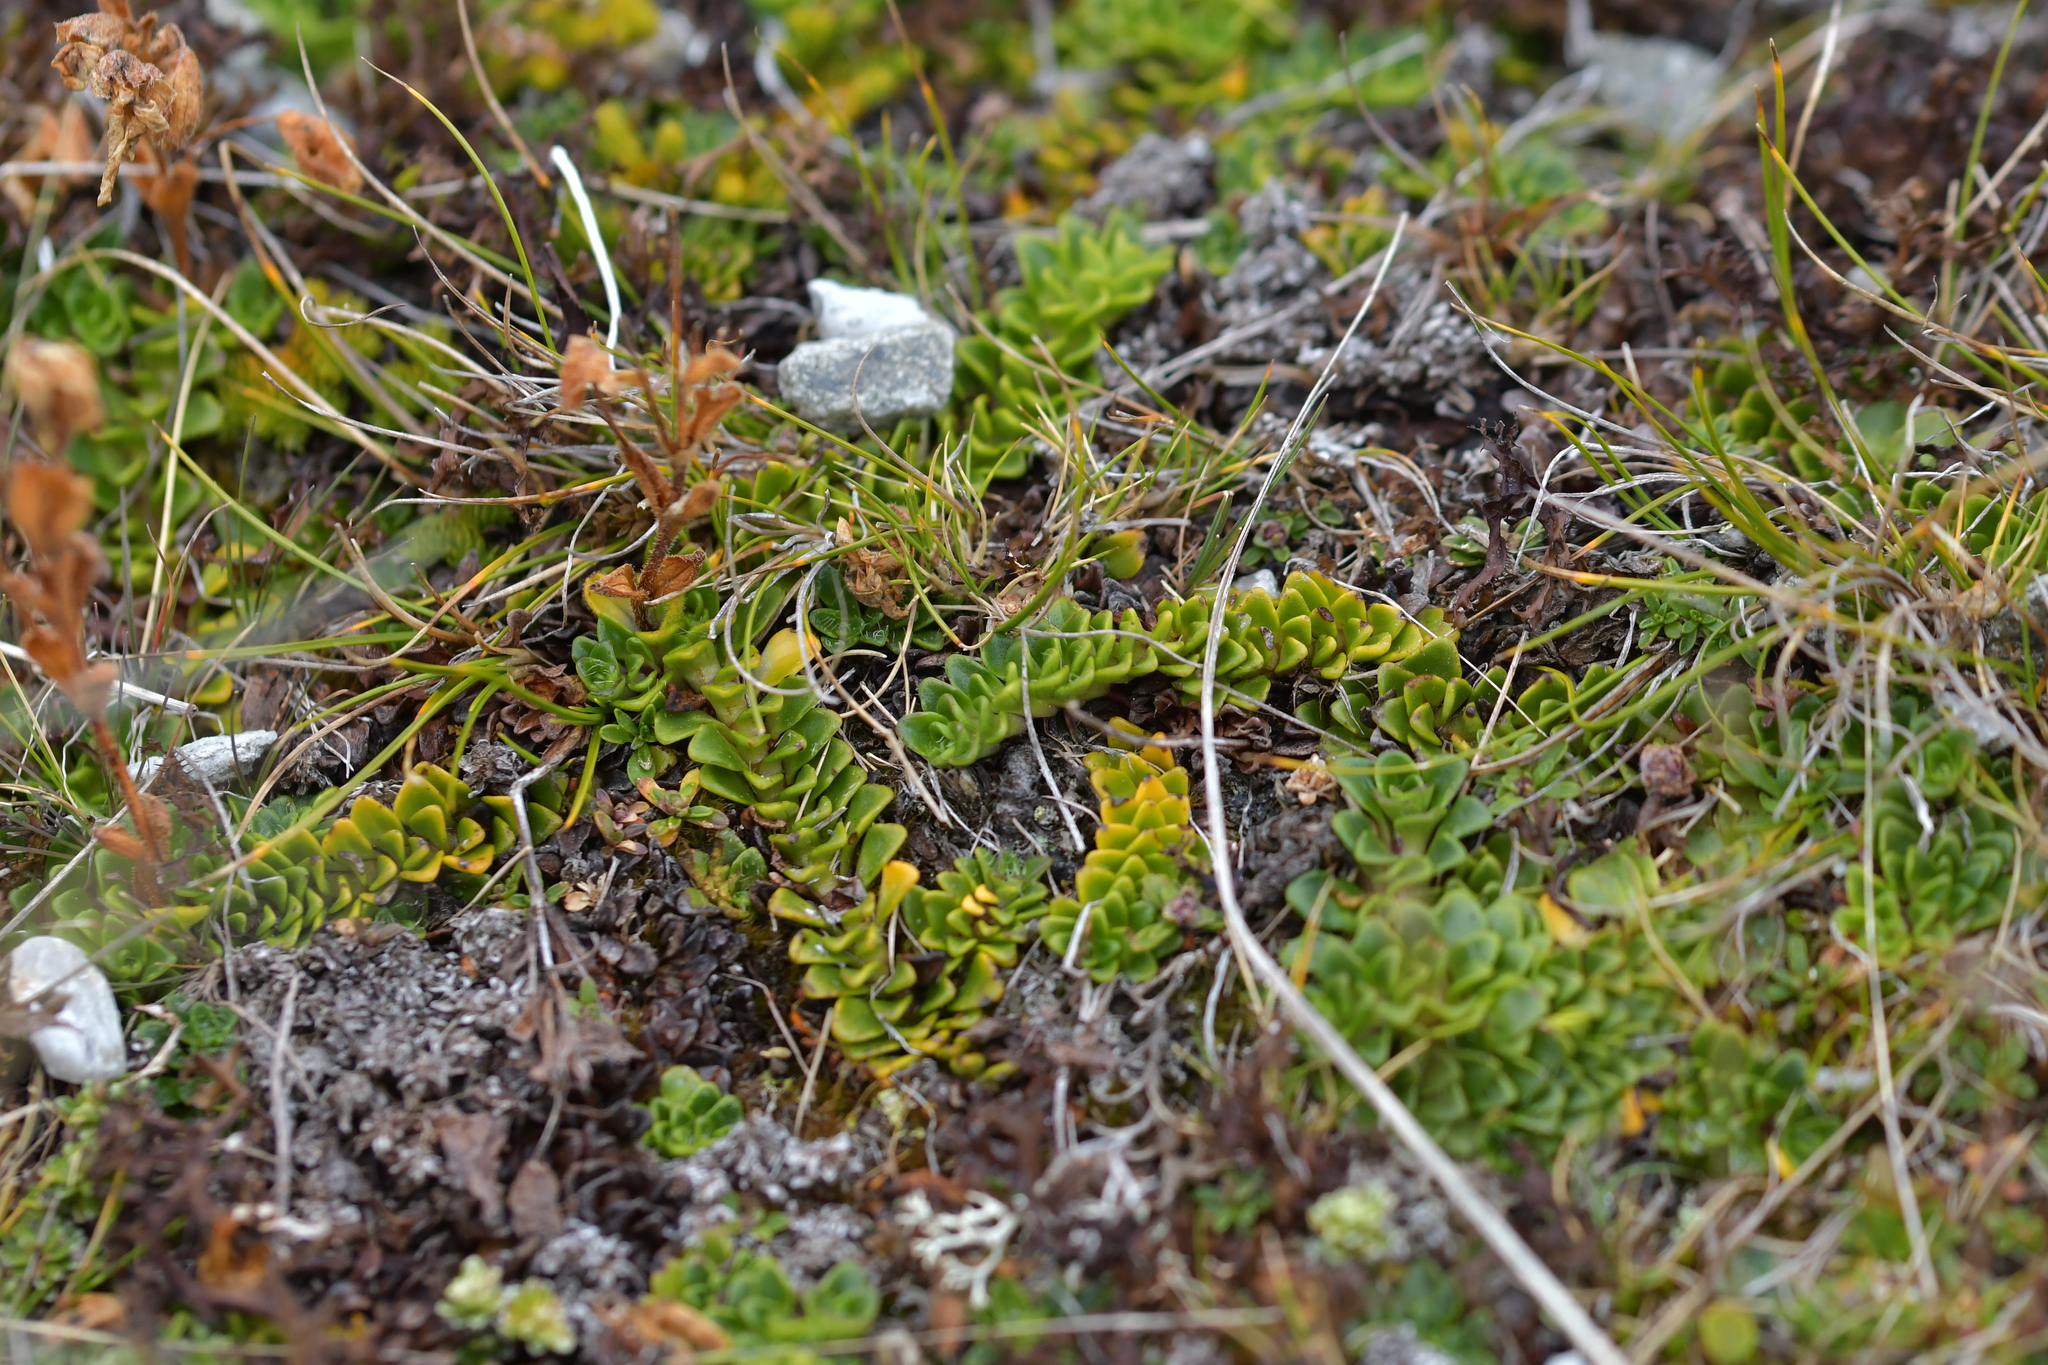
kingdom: Plantae
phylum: Tracheophyta
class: Magnoliopsida
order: Lamiales
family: Plantaginaceae
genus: Ourisia
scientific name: Ourisia glandulosa
